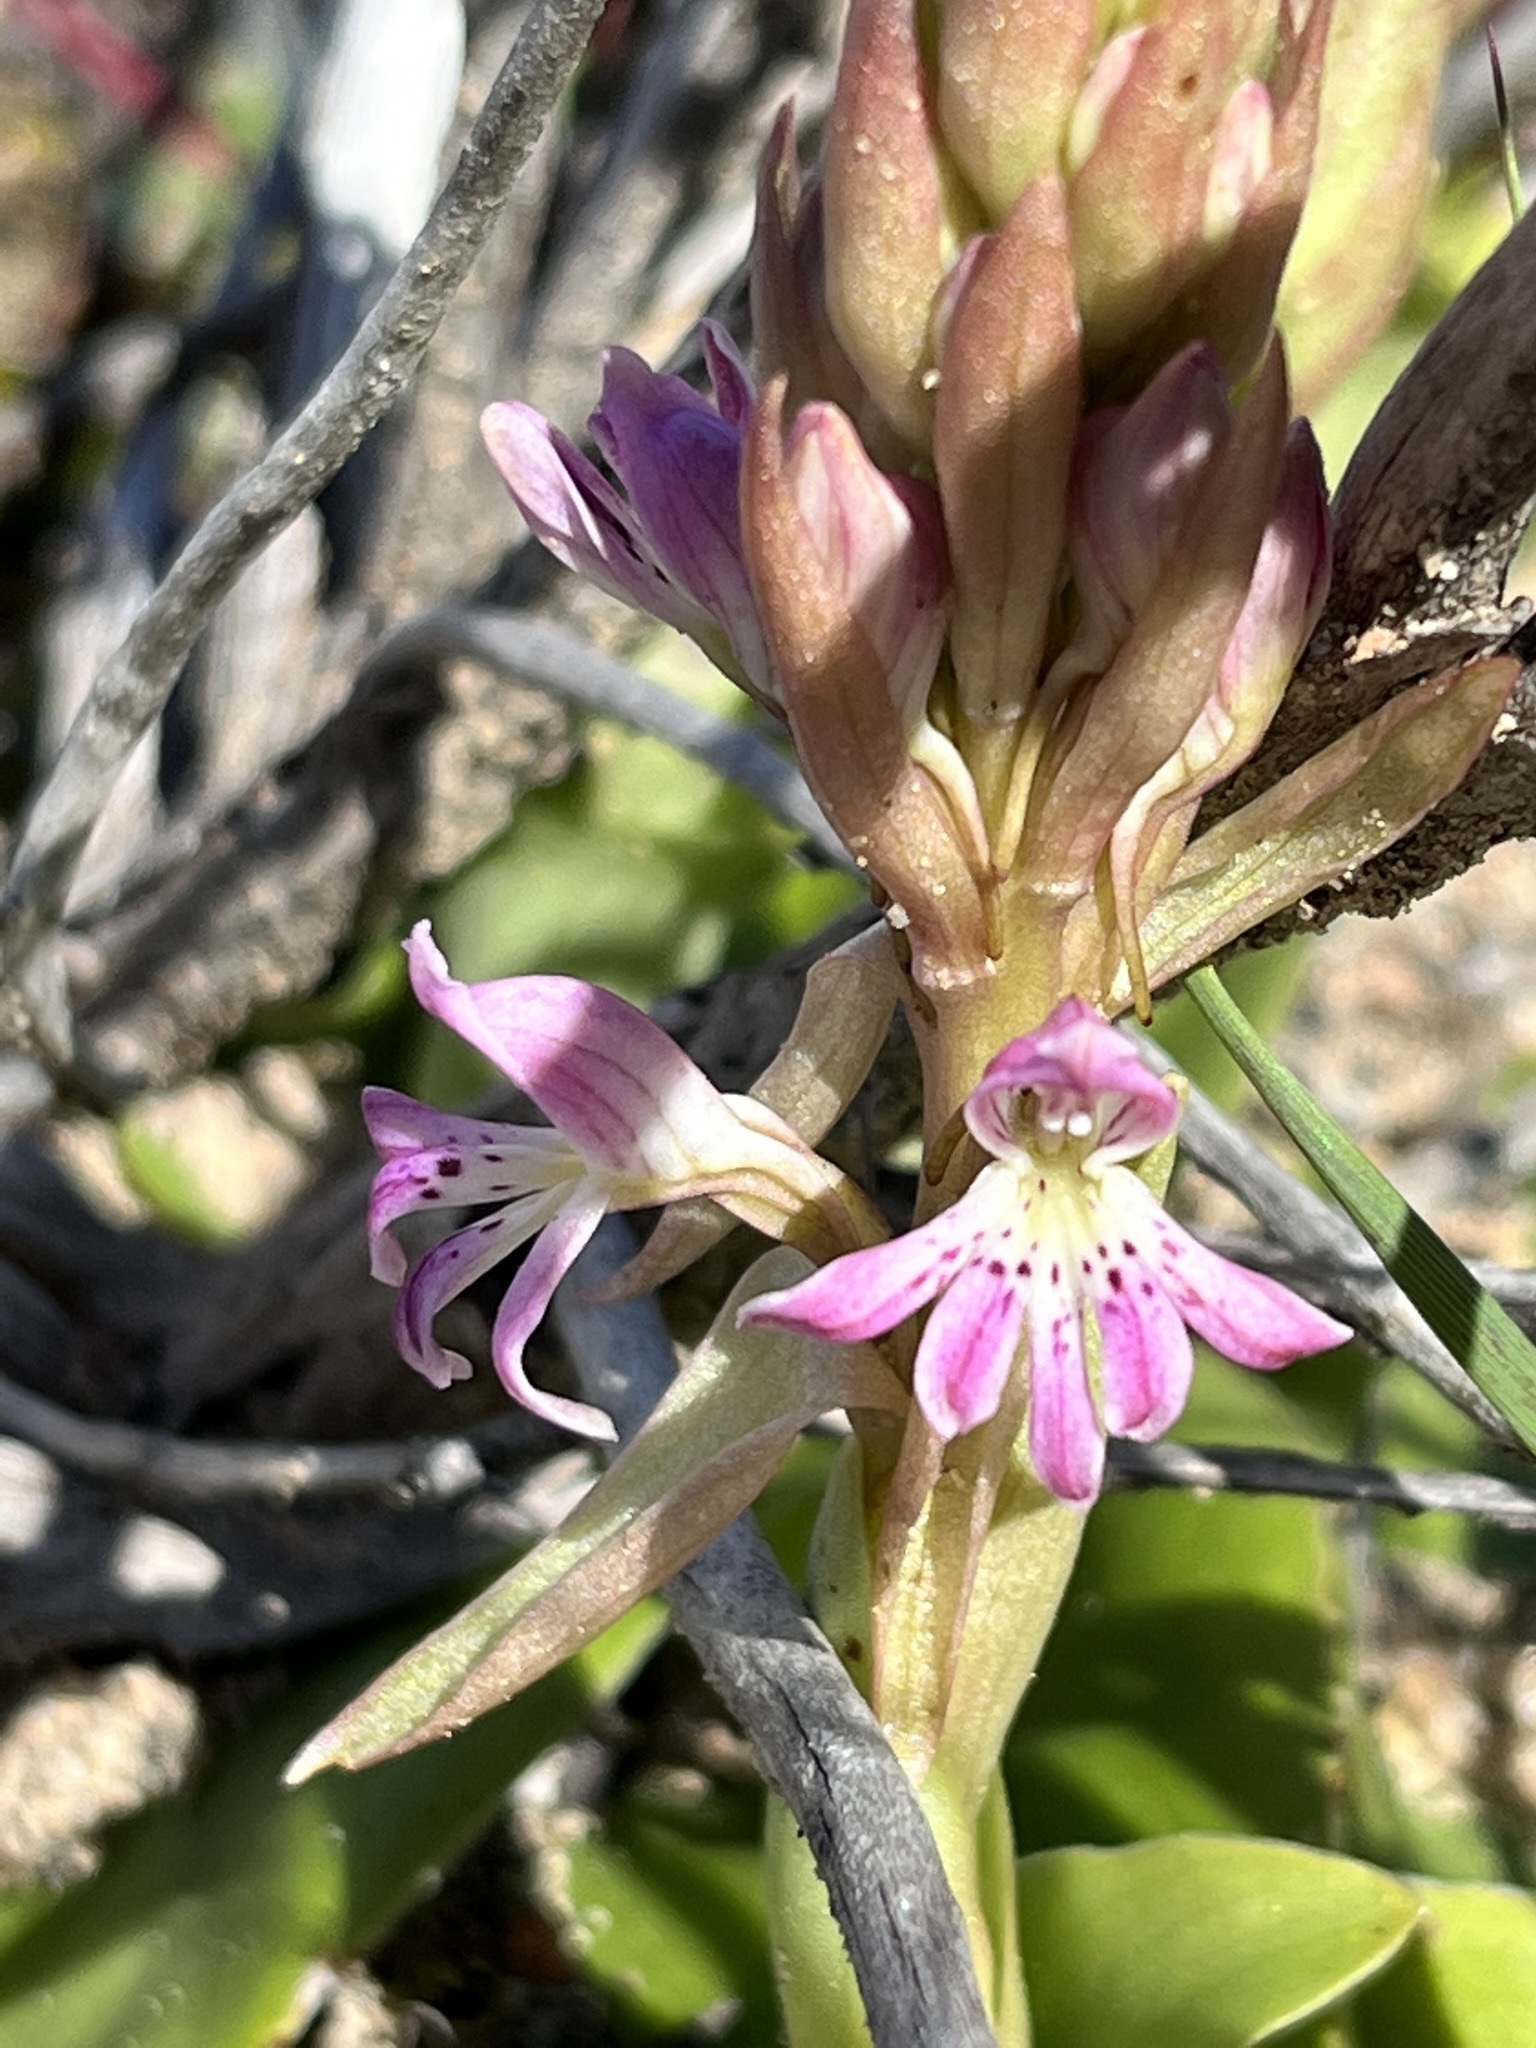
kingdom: Plantae
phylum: Tracheophyta
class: Liliopsida
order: Asparagales
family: Orchidaceae
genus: Satyrium
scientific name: Satyrium erectum
